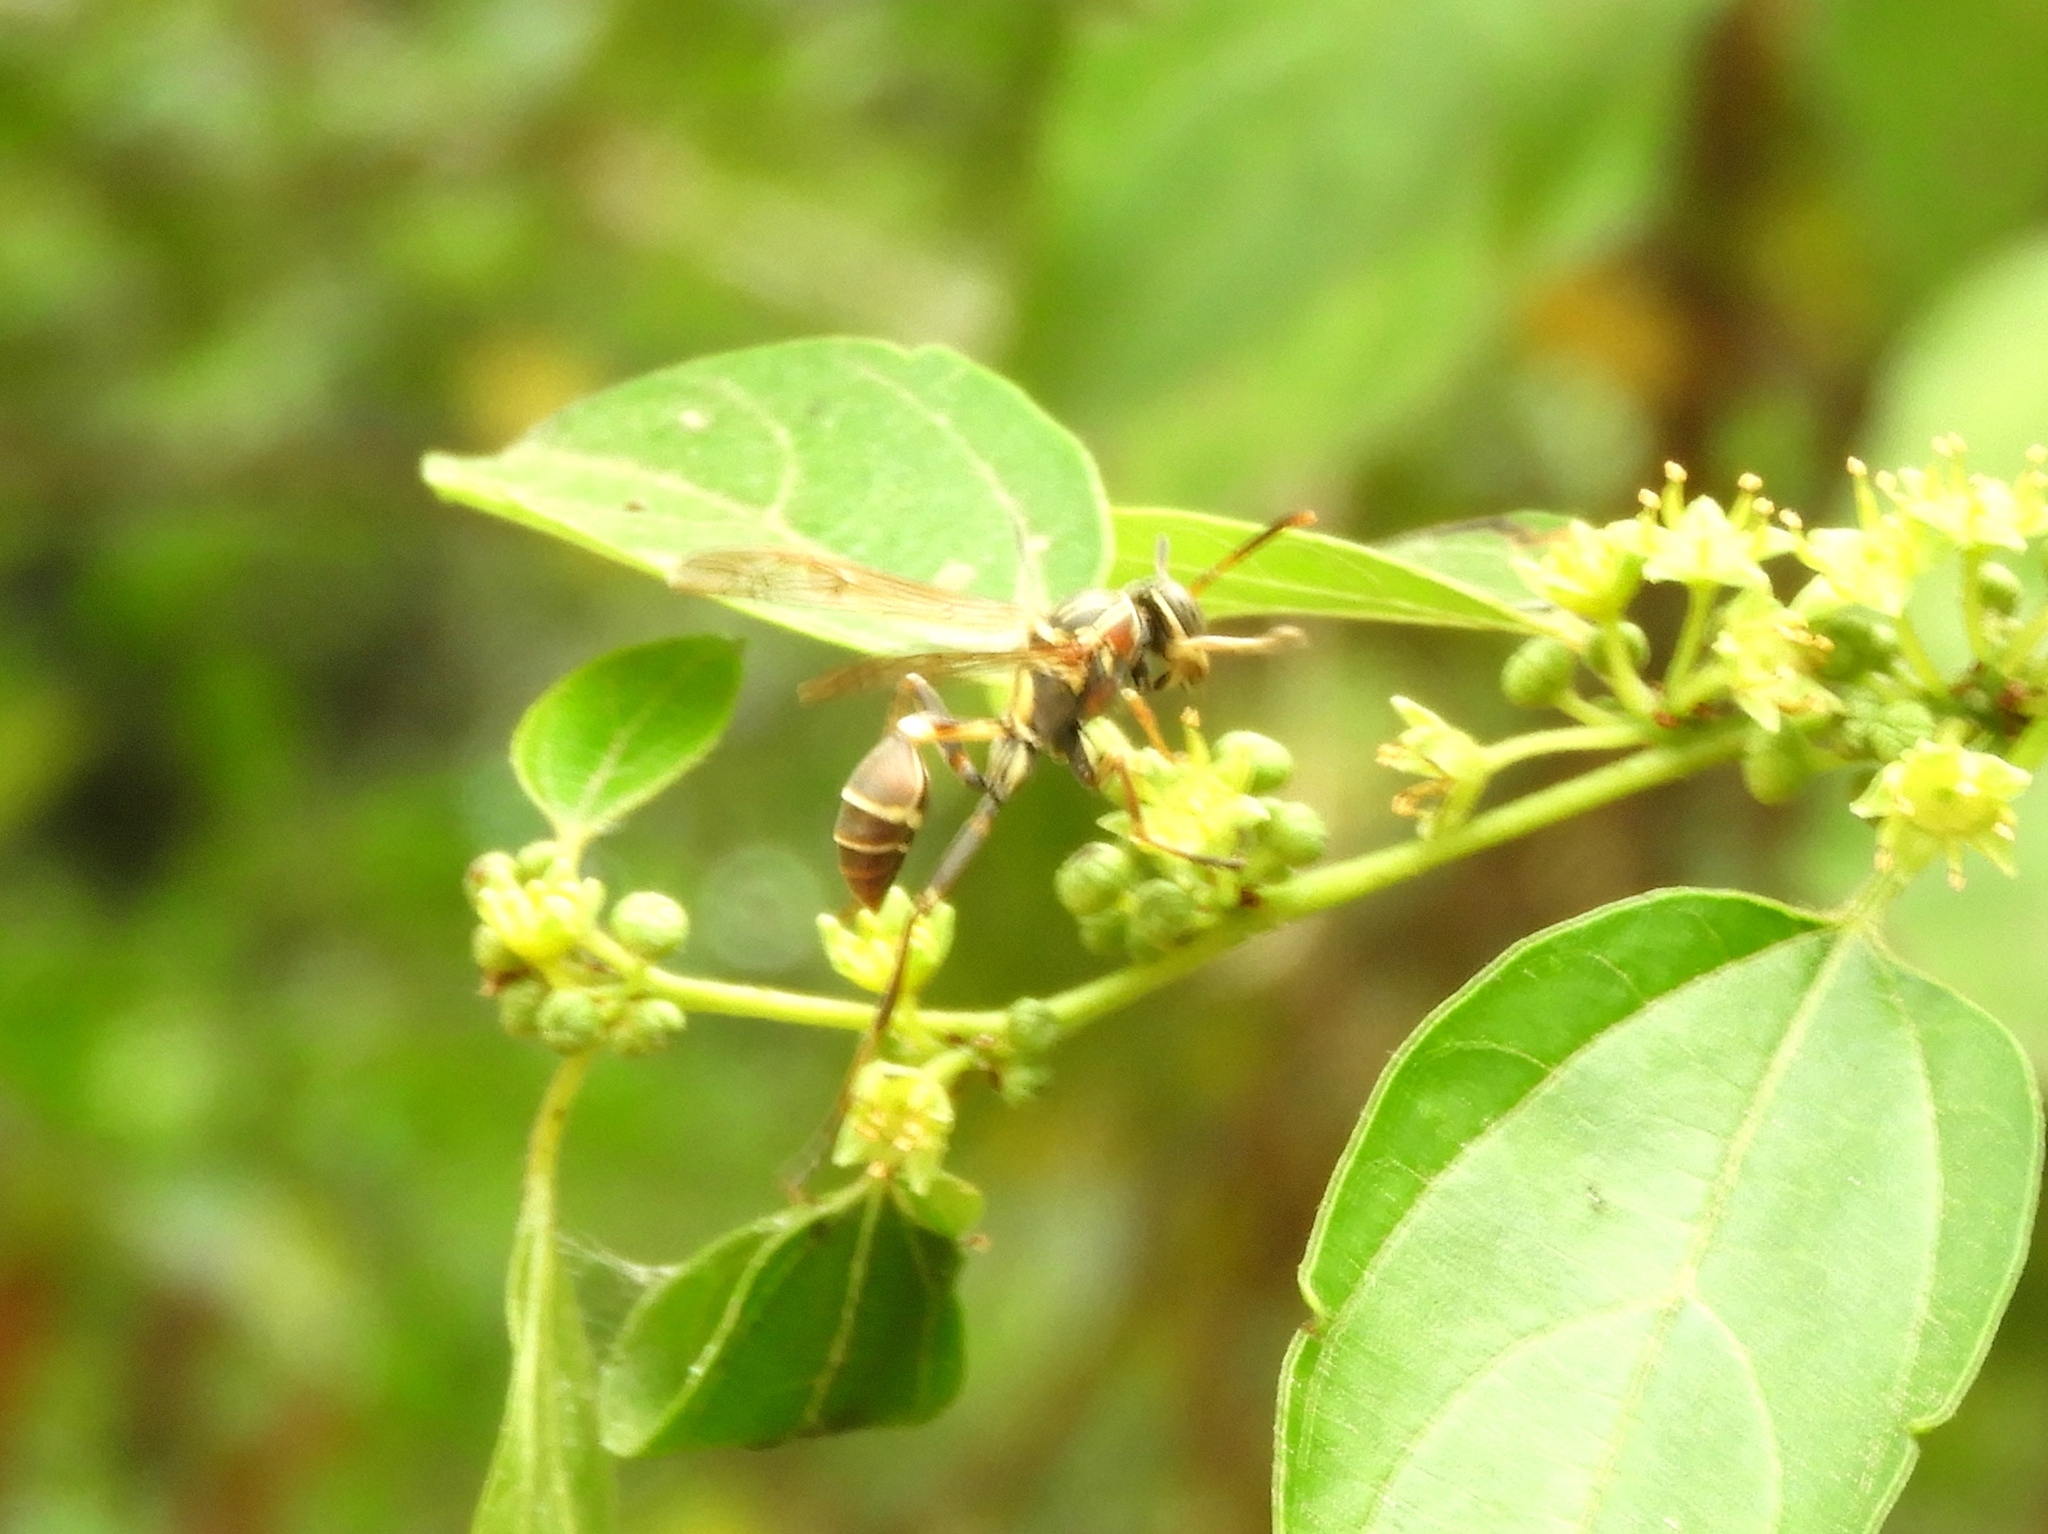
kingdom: Animalia
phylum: Arthropoda
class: Insecta
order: Hymenoptera
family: Vespidae
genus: Mischocyttarus
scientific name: Mischocyttarus mexicanus
